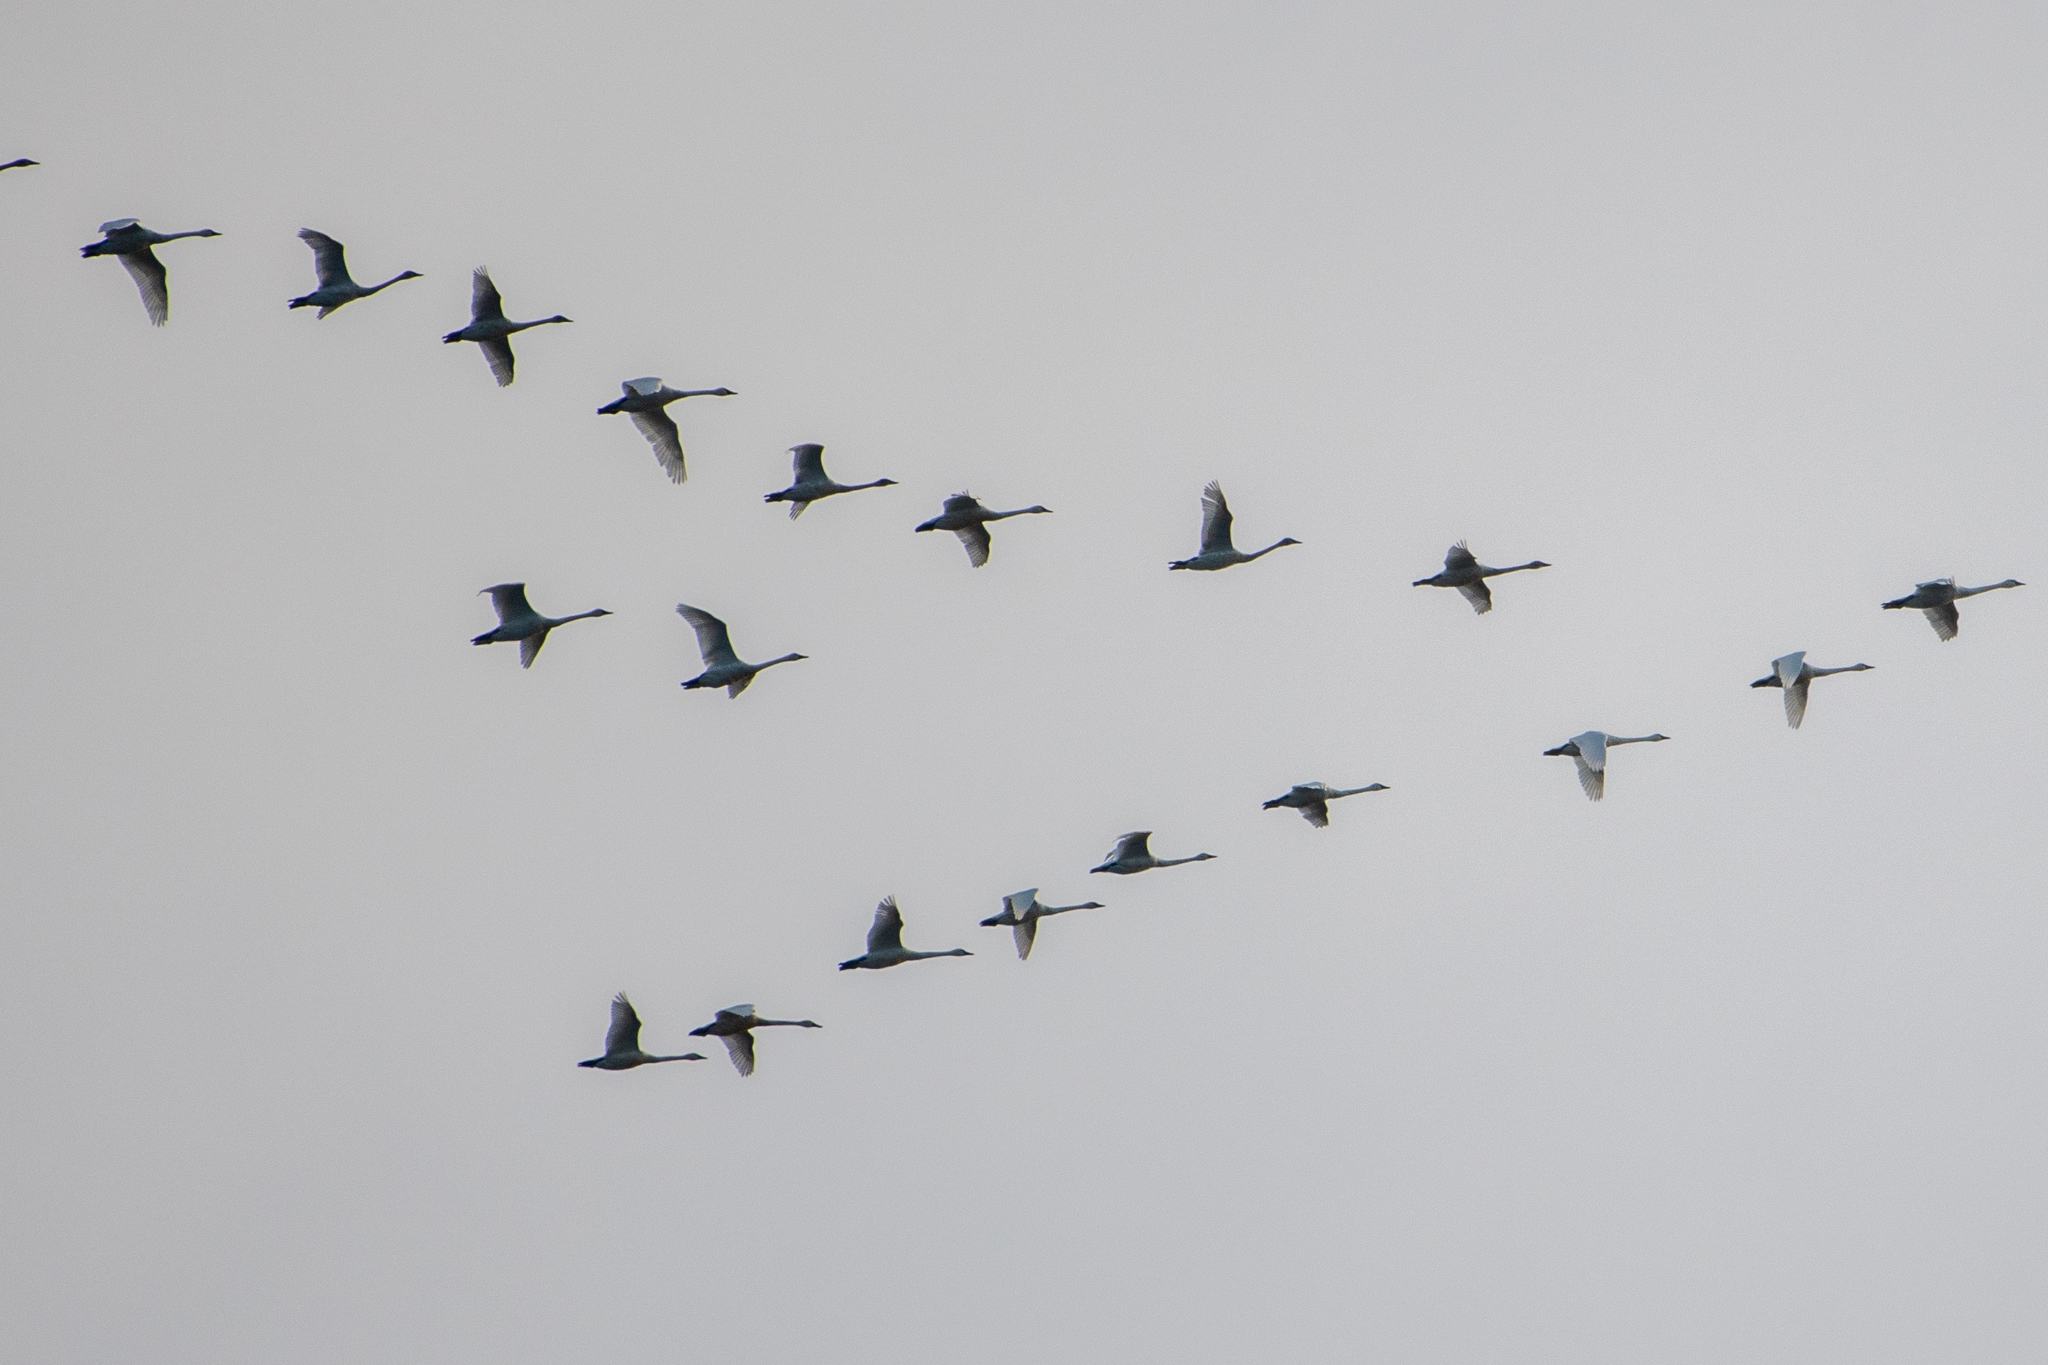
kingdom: Animalia
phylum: Chordata
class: Aves
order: Anseriformes
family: Anatidae
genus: Cygnus
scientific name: Cygnus columbianus
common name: Tundra swan
